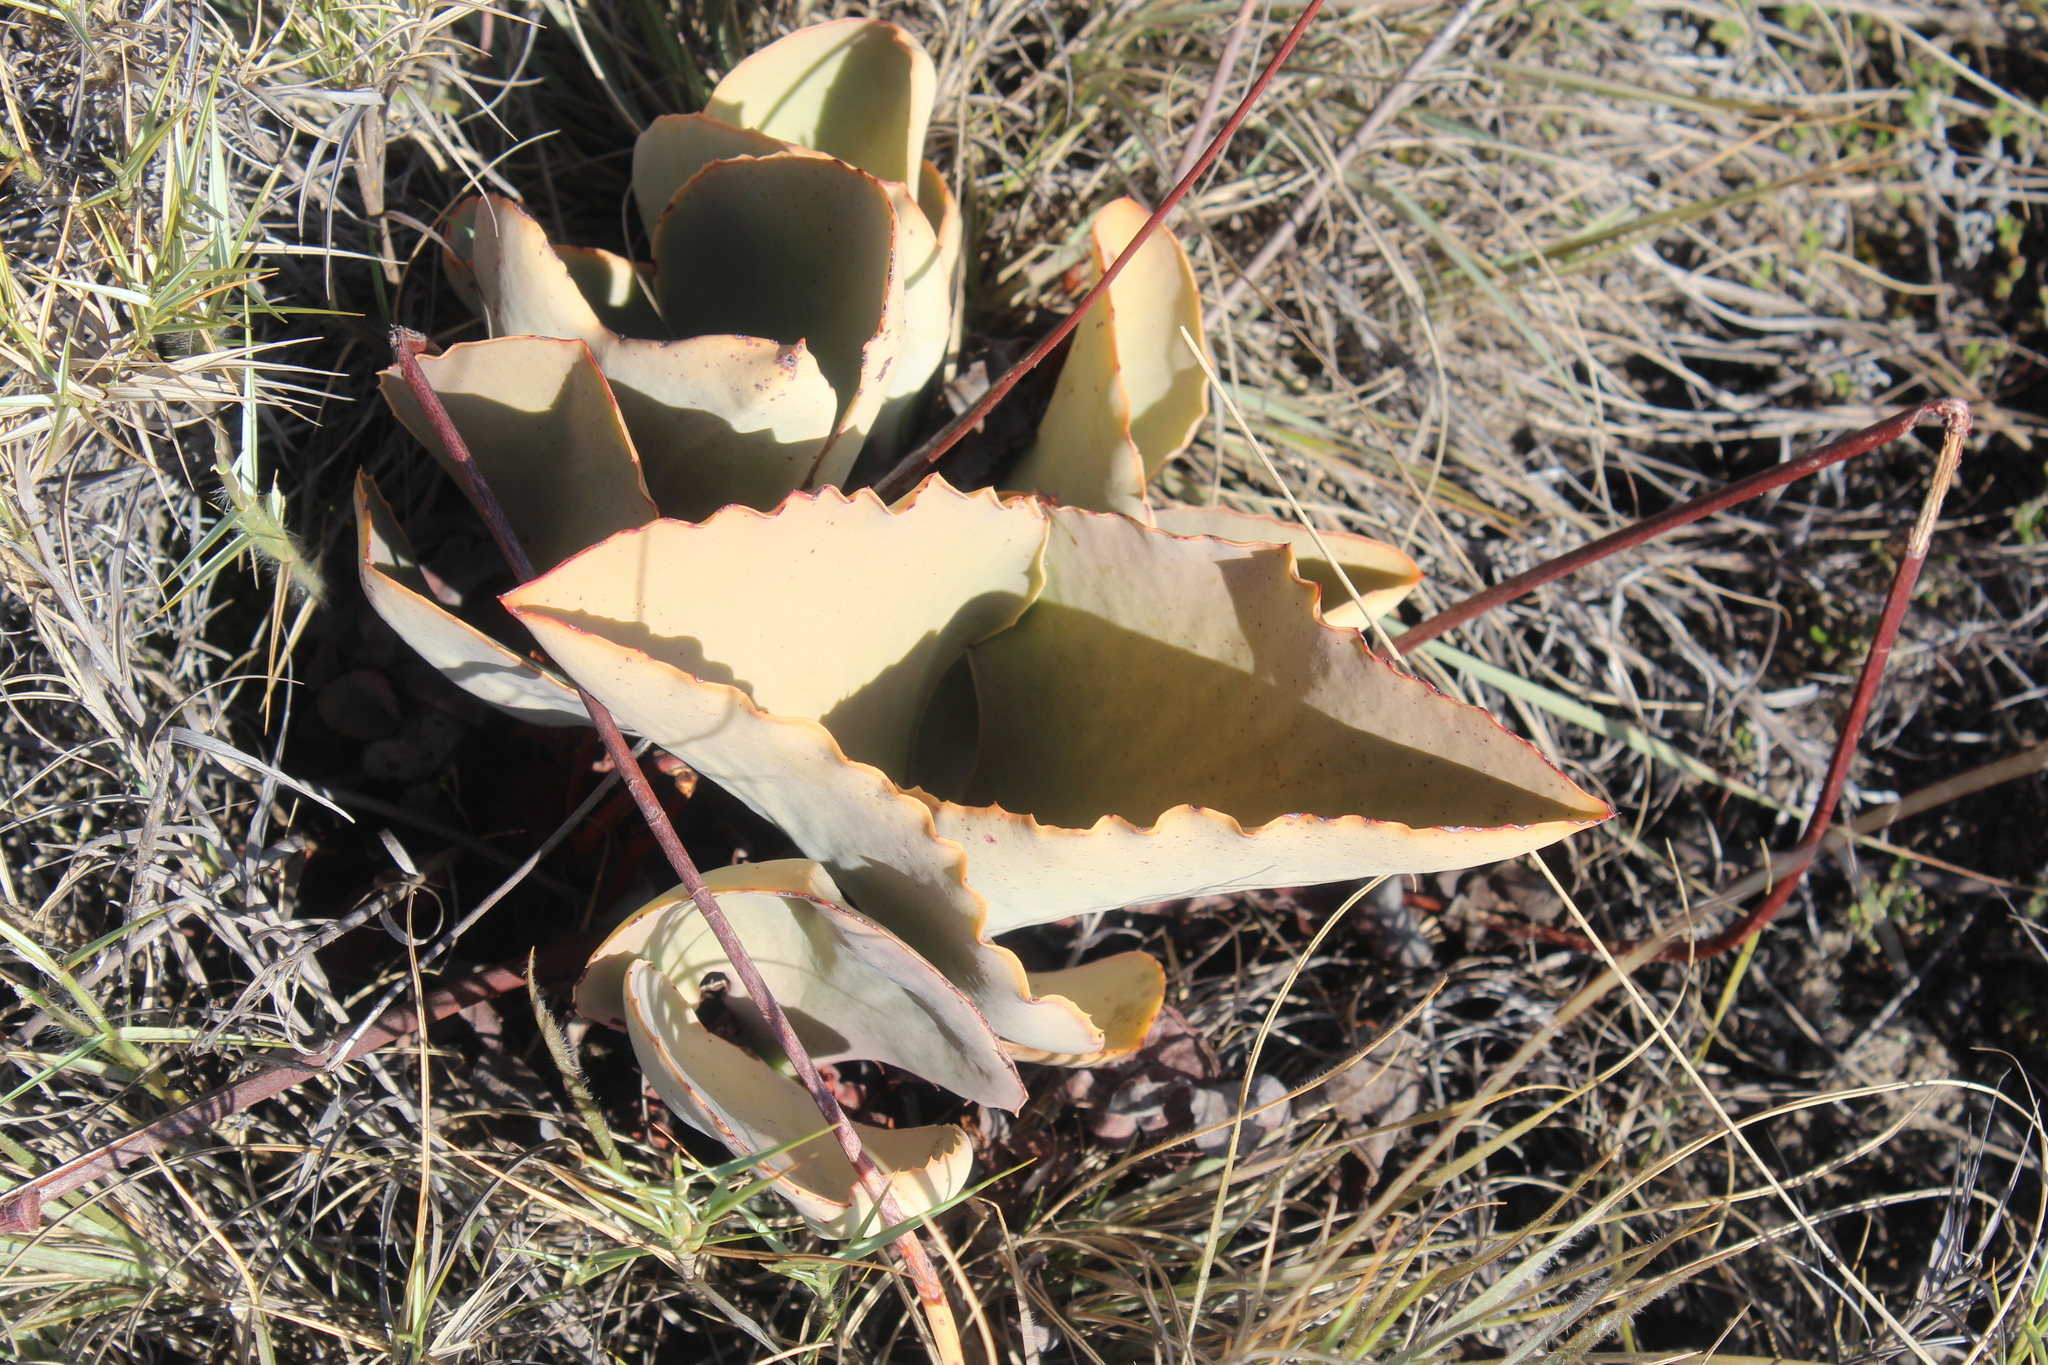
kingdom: Plantae
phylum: Tracheophyta
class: Magnoliopsida
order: Saxifragales
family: Crassulaceae
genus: Kalanchoe
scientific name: Kalanchoe synsepala
